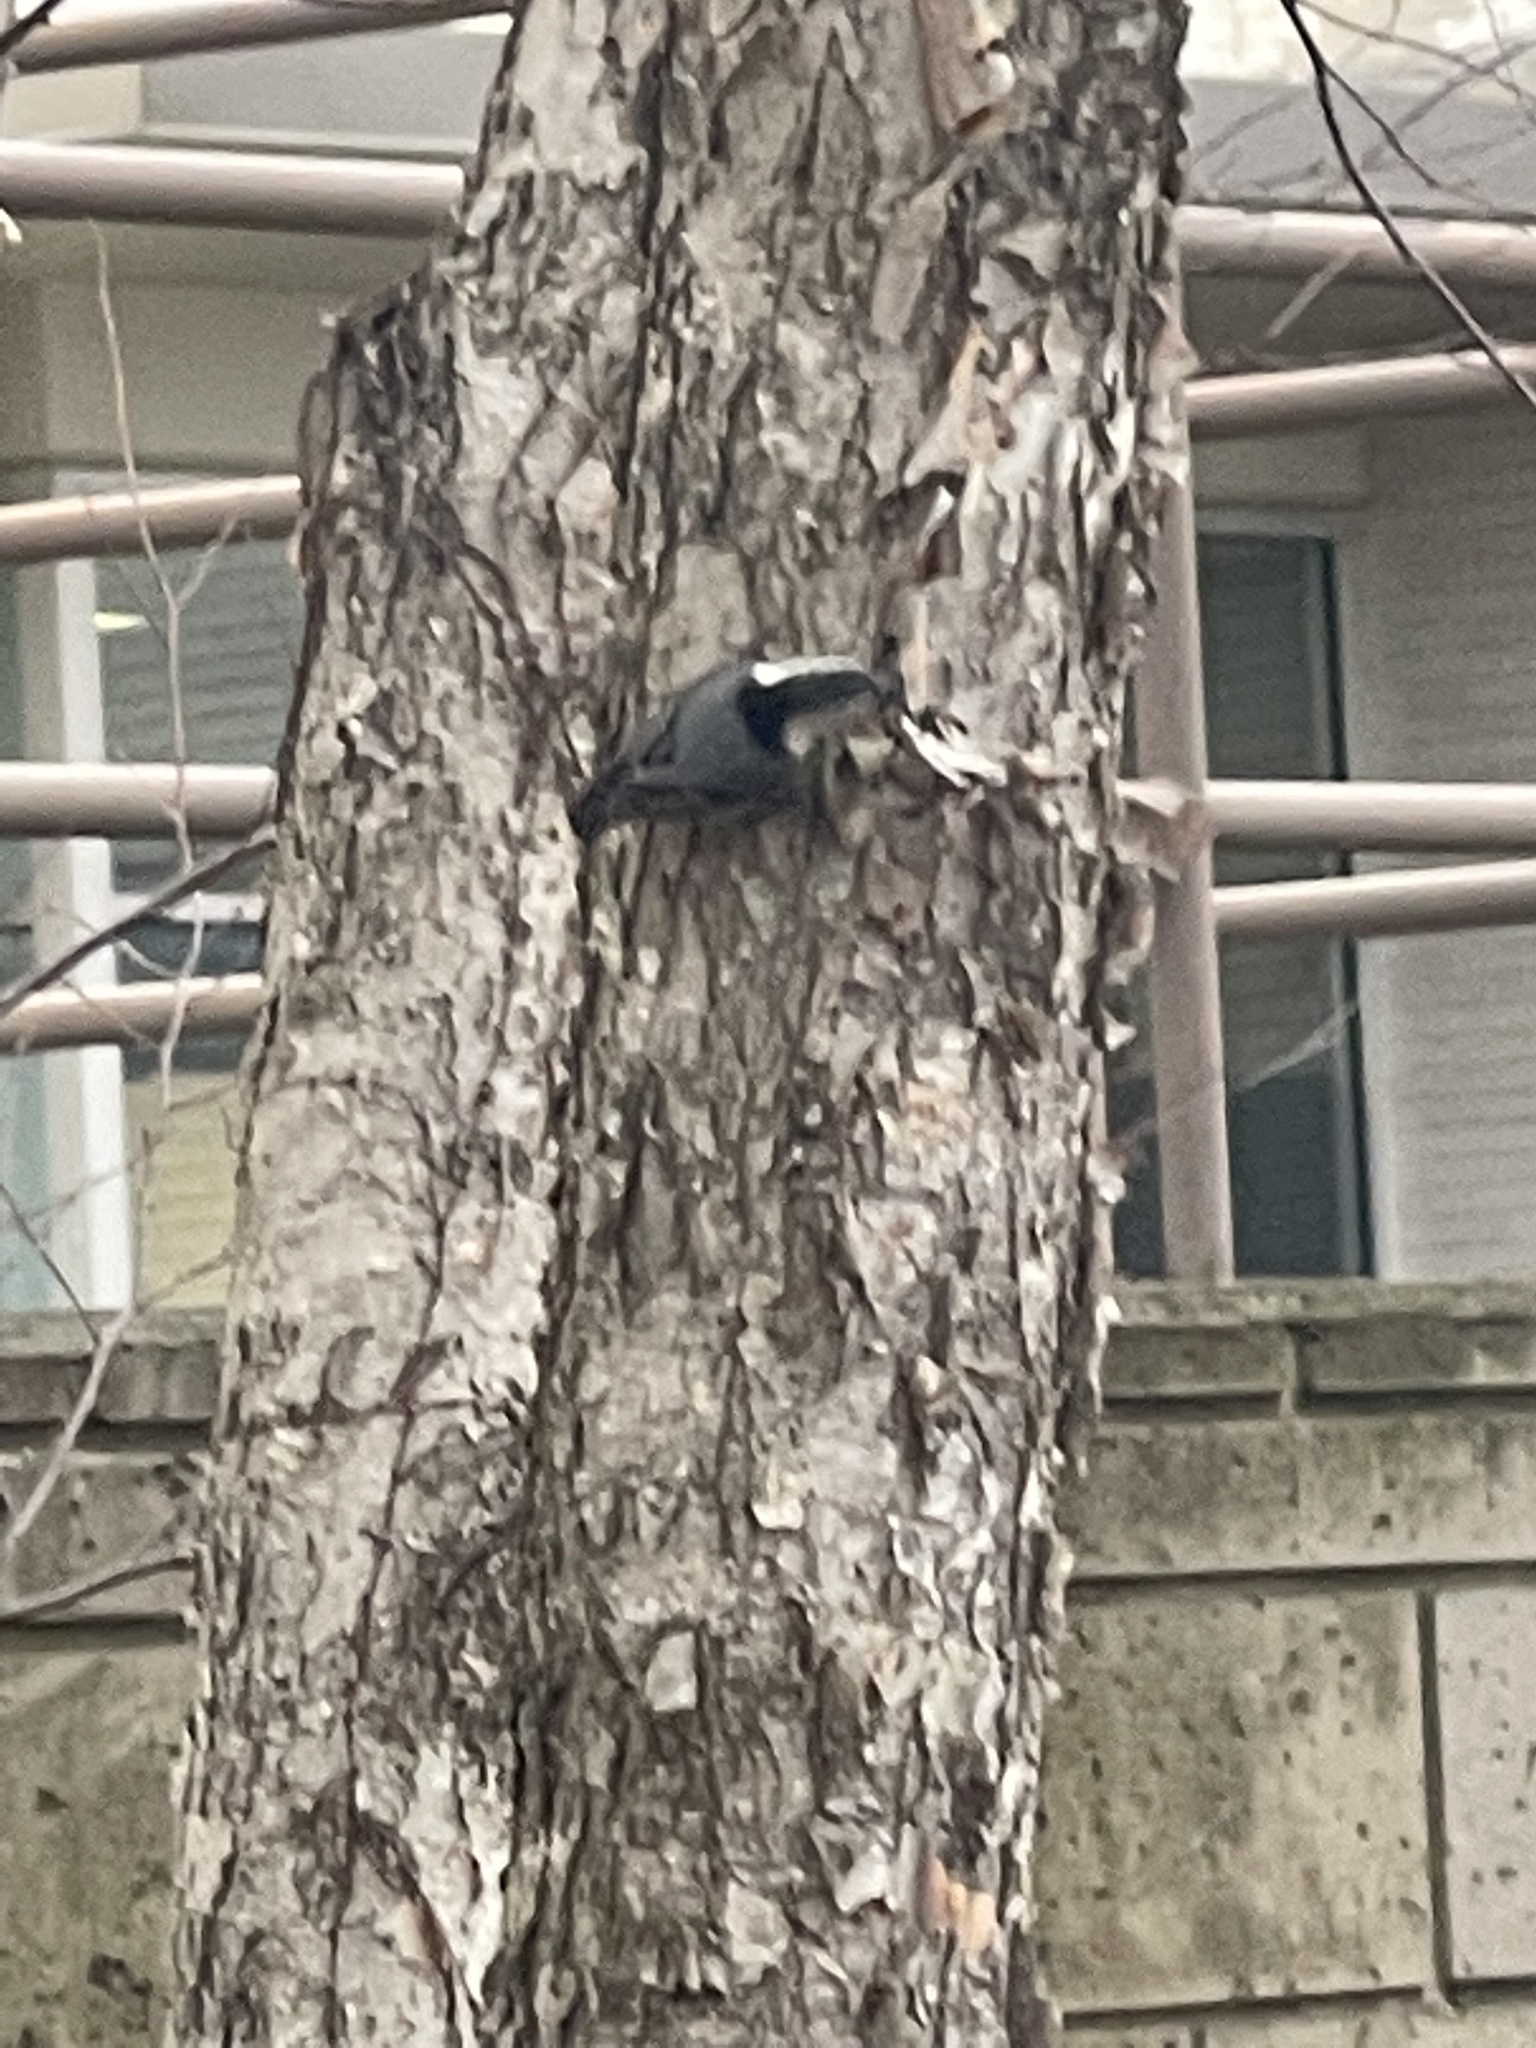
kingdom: Animalia
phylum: Chordata
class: Aves
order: Passeriformes
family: Sittidae
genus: Sitta
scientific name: Sitta carolinensis
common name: White-breasted nuthatch
